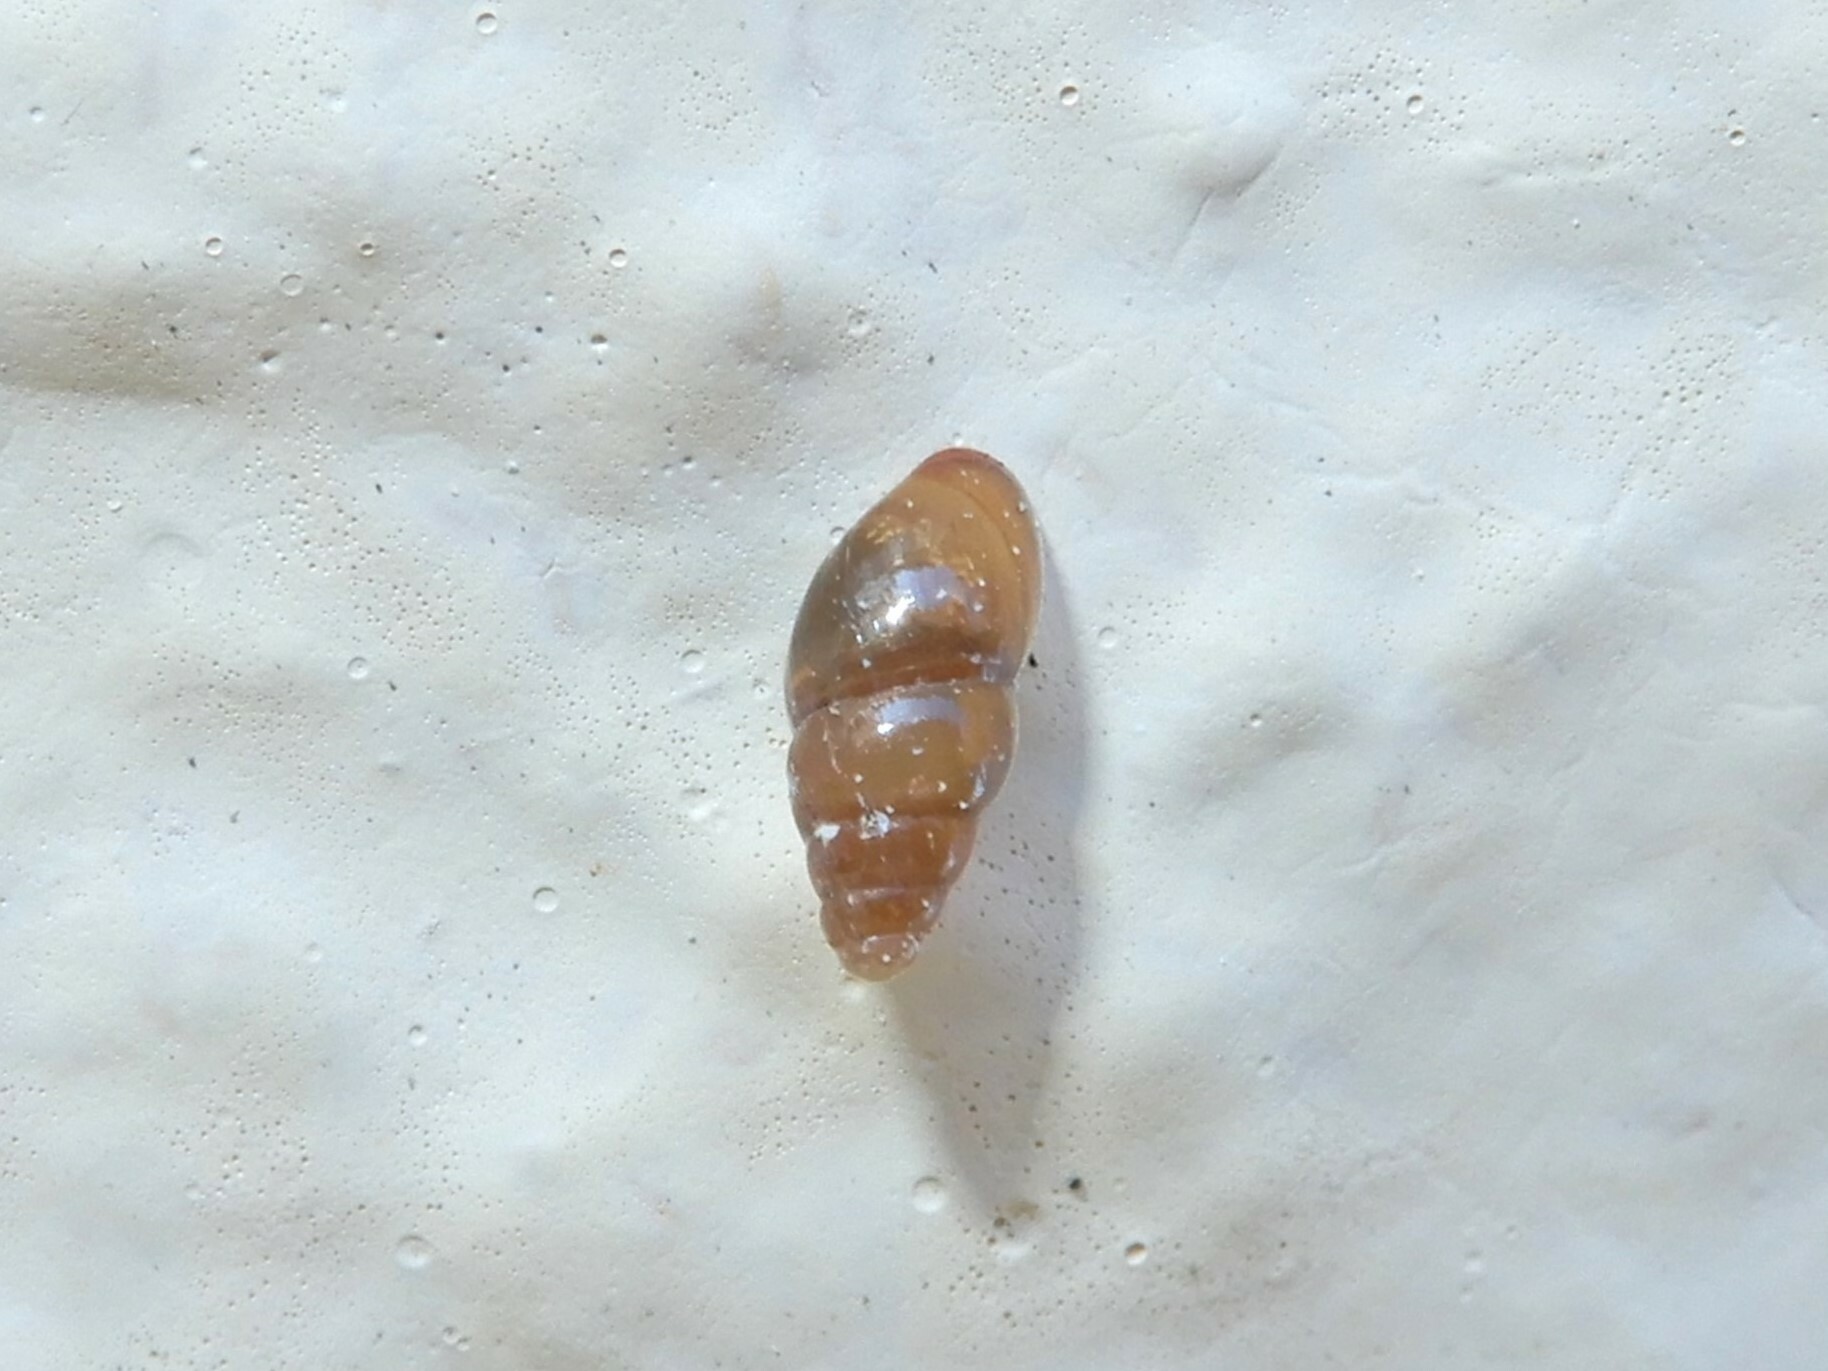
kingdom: Animalia
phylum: Mollusca
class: Gastropoda
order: Stylommatophora
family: Cochlicopidae
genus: Cochlicopa
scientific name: Cochlicopa lubrica
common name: Glossy pillar snail
